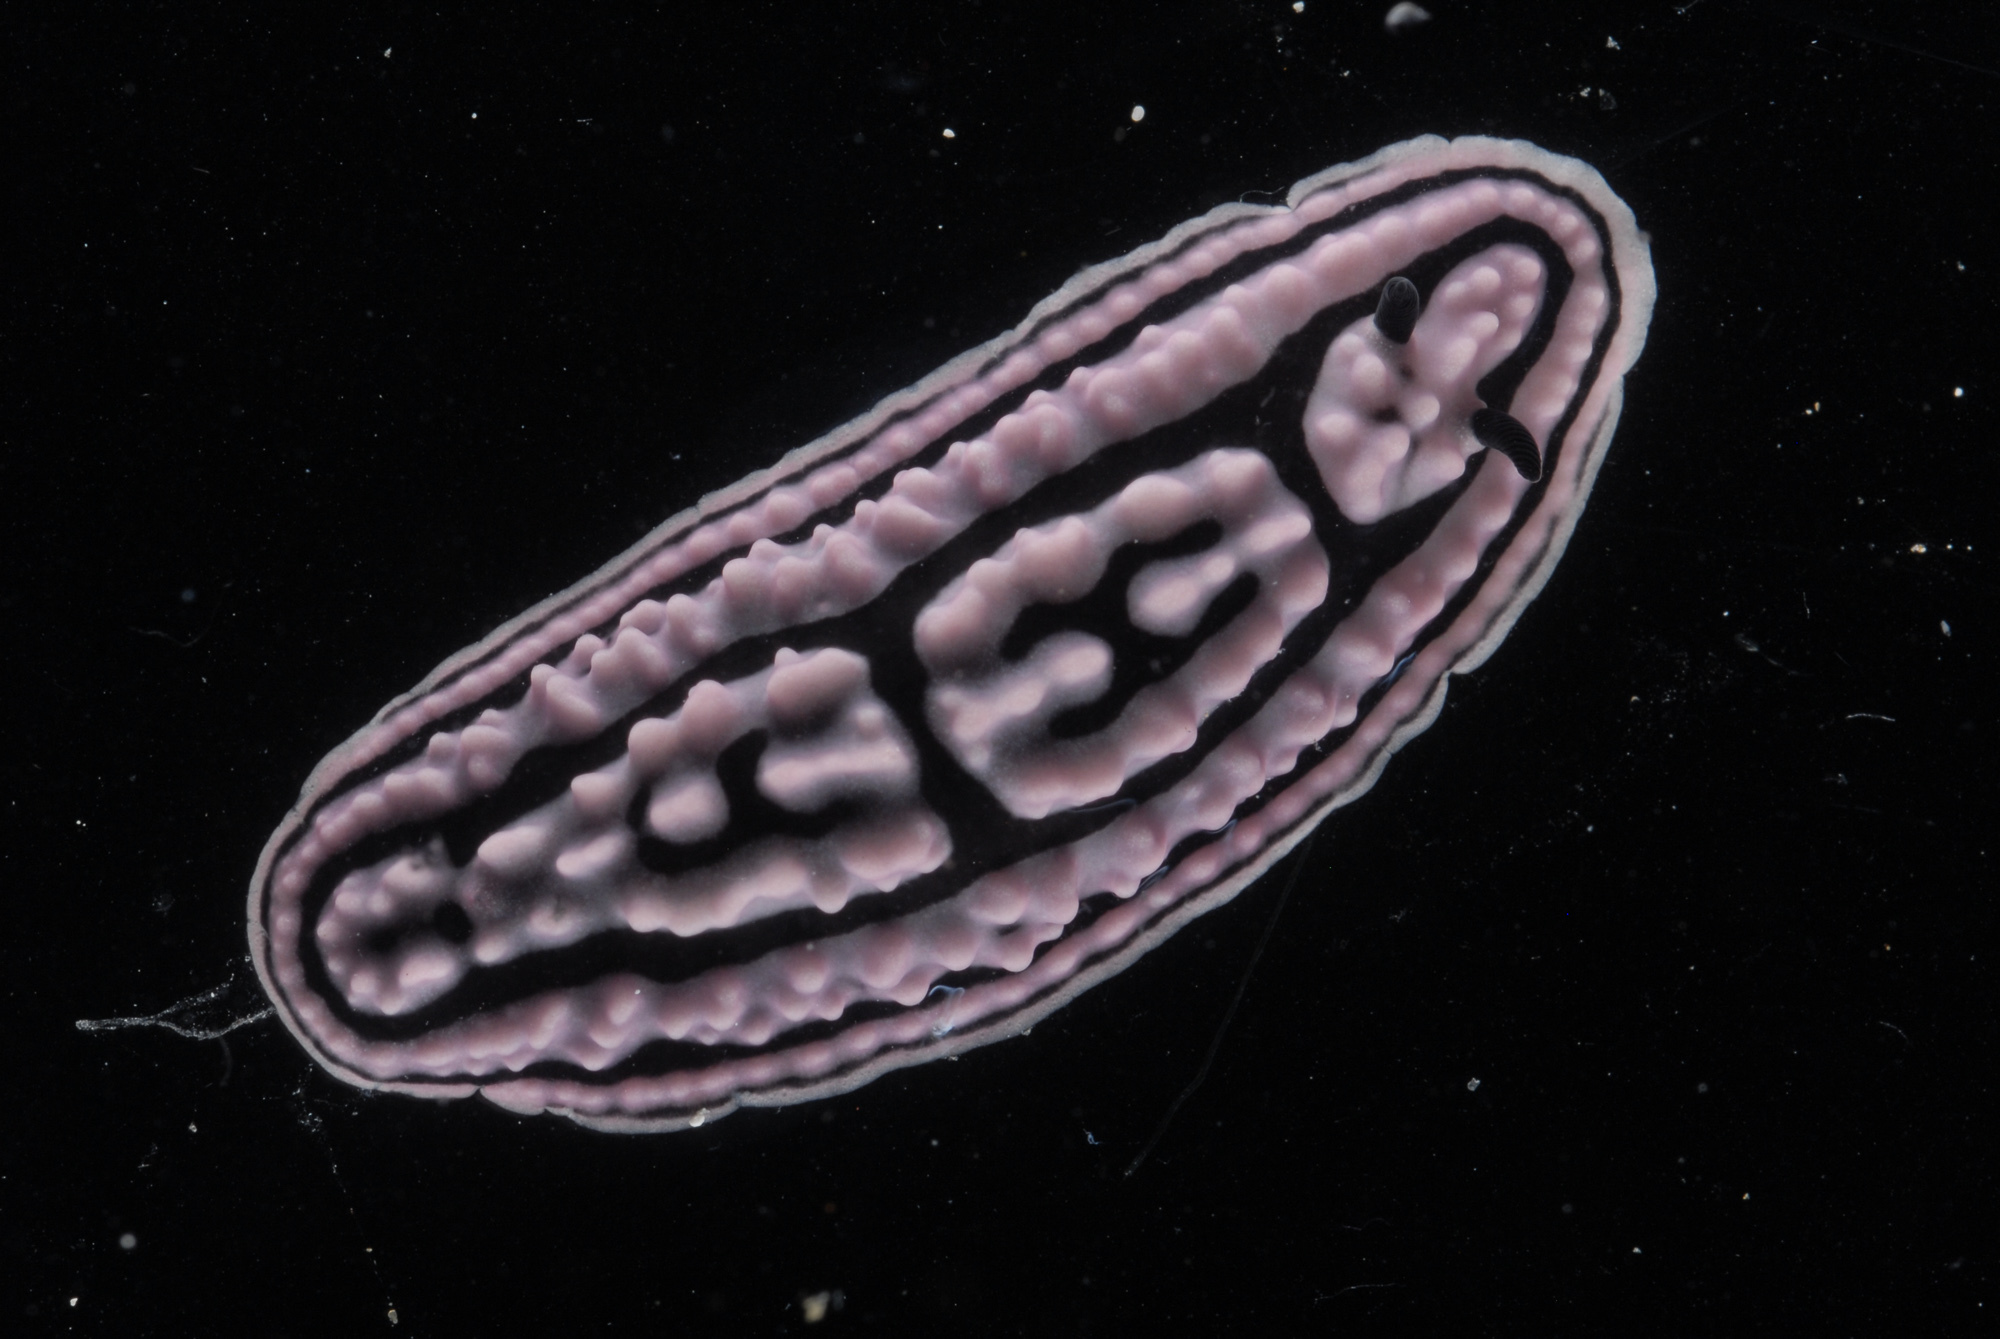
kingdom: Animalia
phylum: Mollusca
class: Gastropoda
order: Nudibranchia
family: Phyllidiidae
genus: Phyllidiella
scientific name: Phyllidiella meandrina
